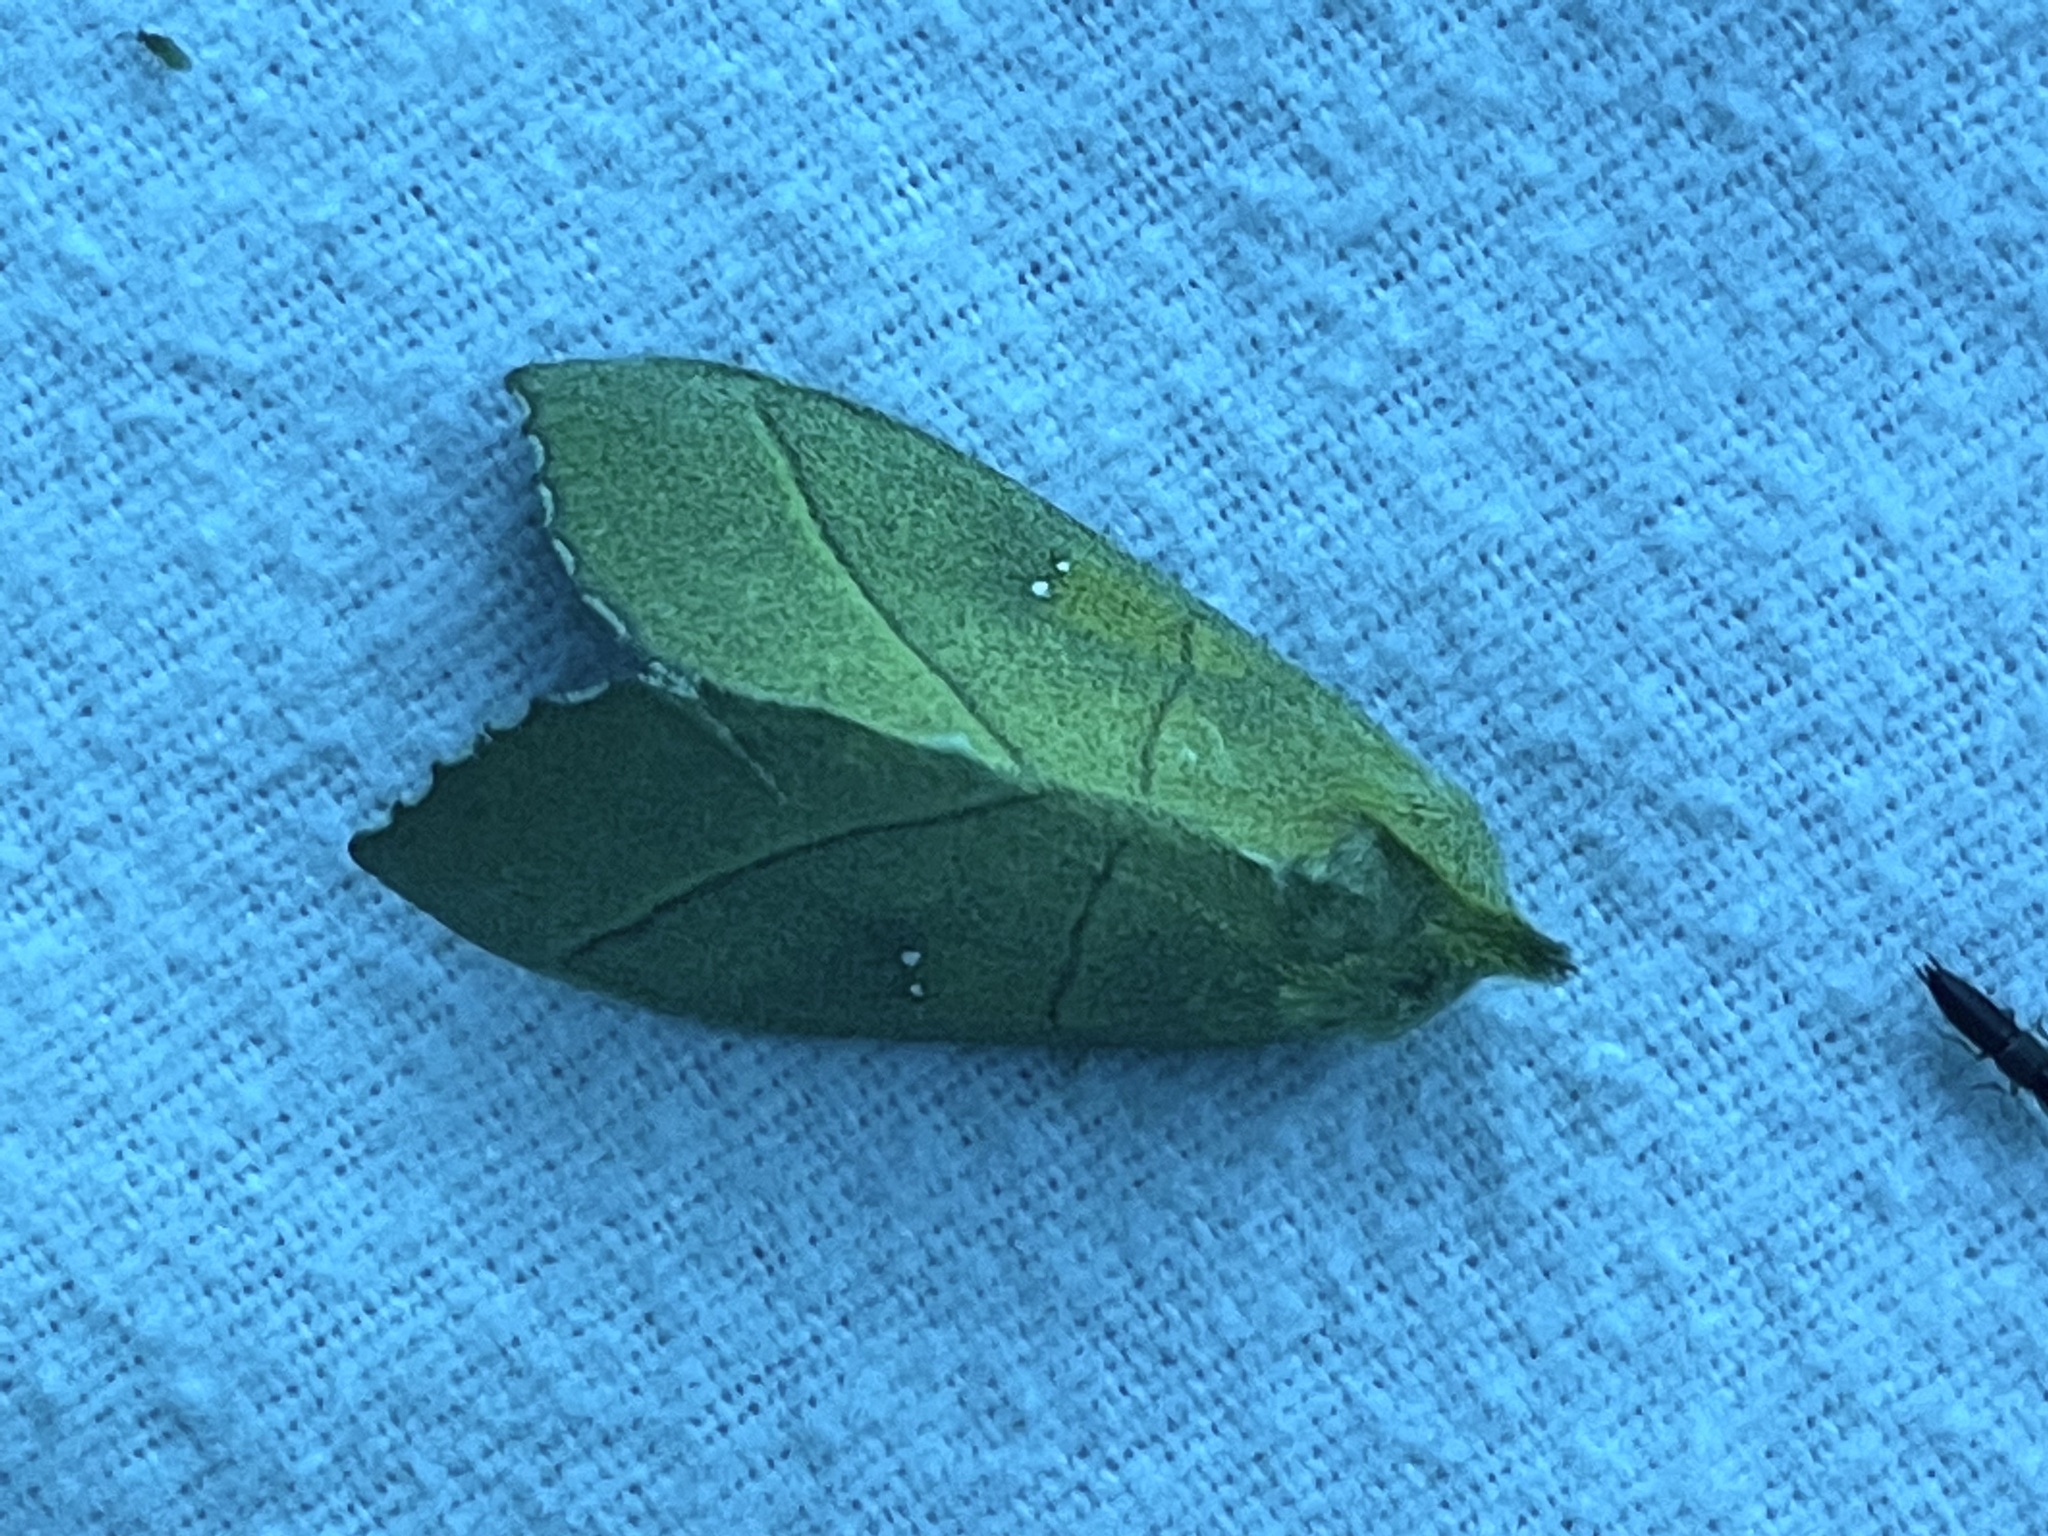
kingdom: Animalia
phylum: Arthropoda
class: Insecta
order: Lepidoptera
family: Notodontidae
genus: Nadata
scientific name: Nadata gibbosa
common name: White-dotted prominent
